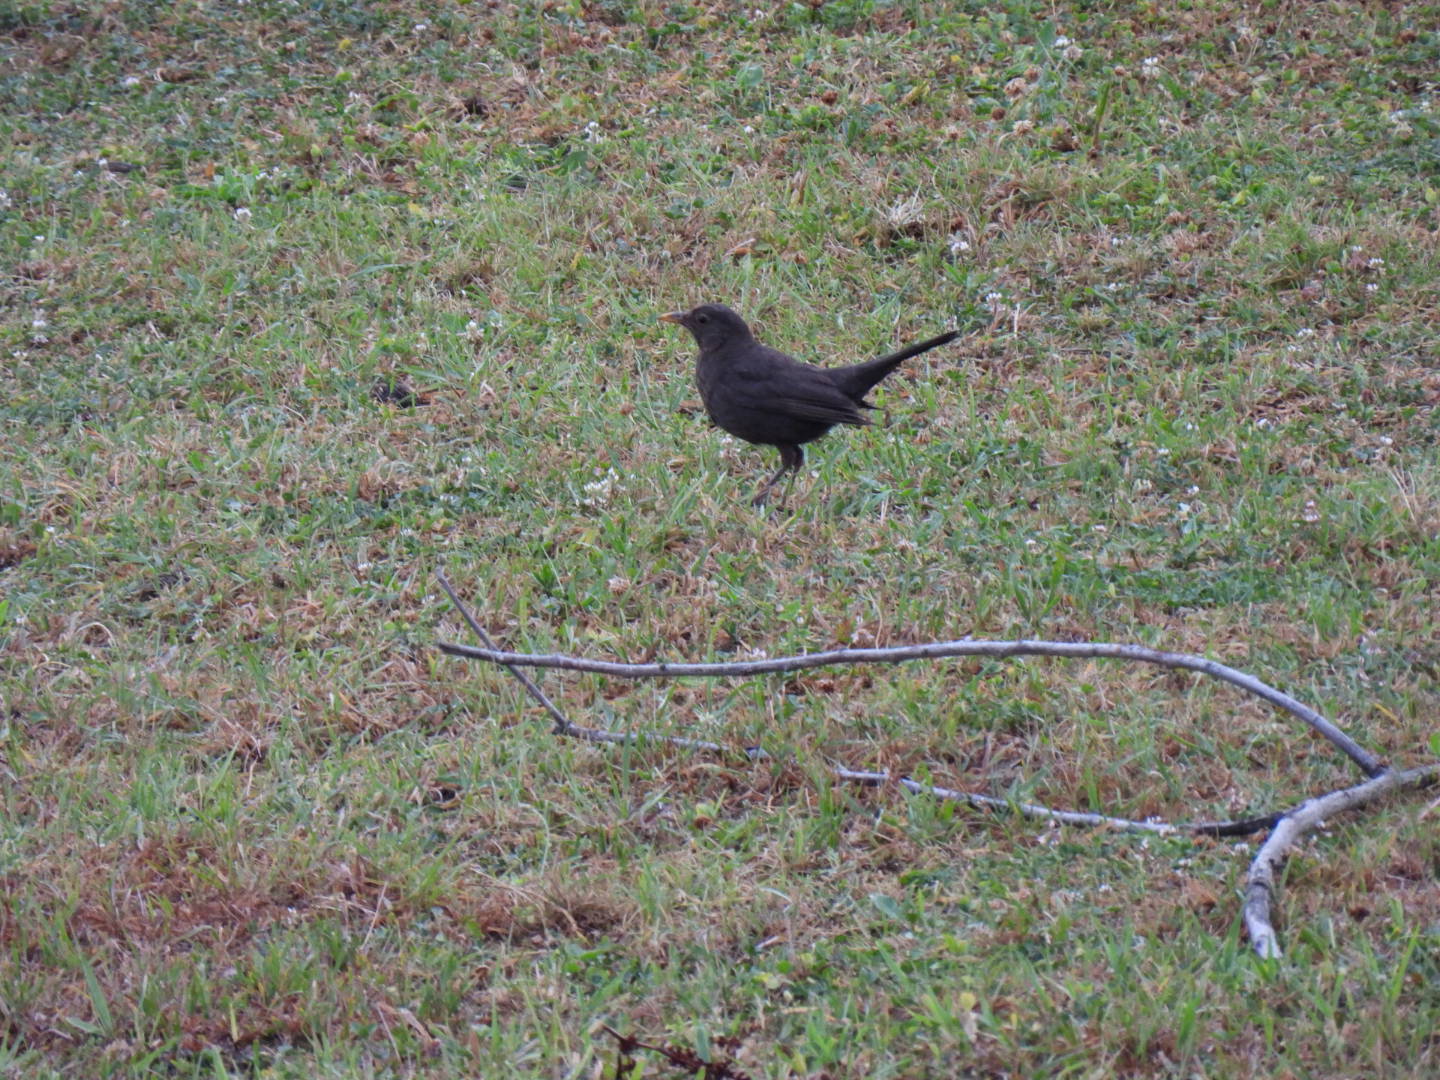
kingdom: Animalia
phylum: Chordata
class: Aves
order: Passeriformes
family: Turdidae
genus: Turdus
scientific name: Turdus merula
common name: Common blackbird
